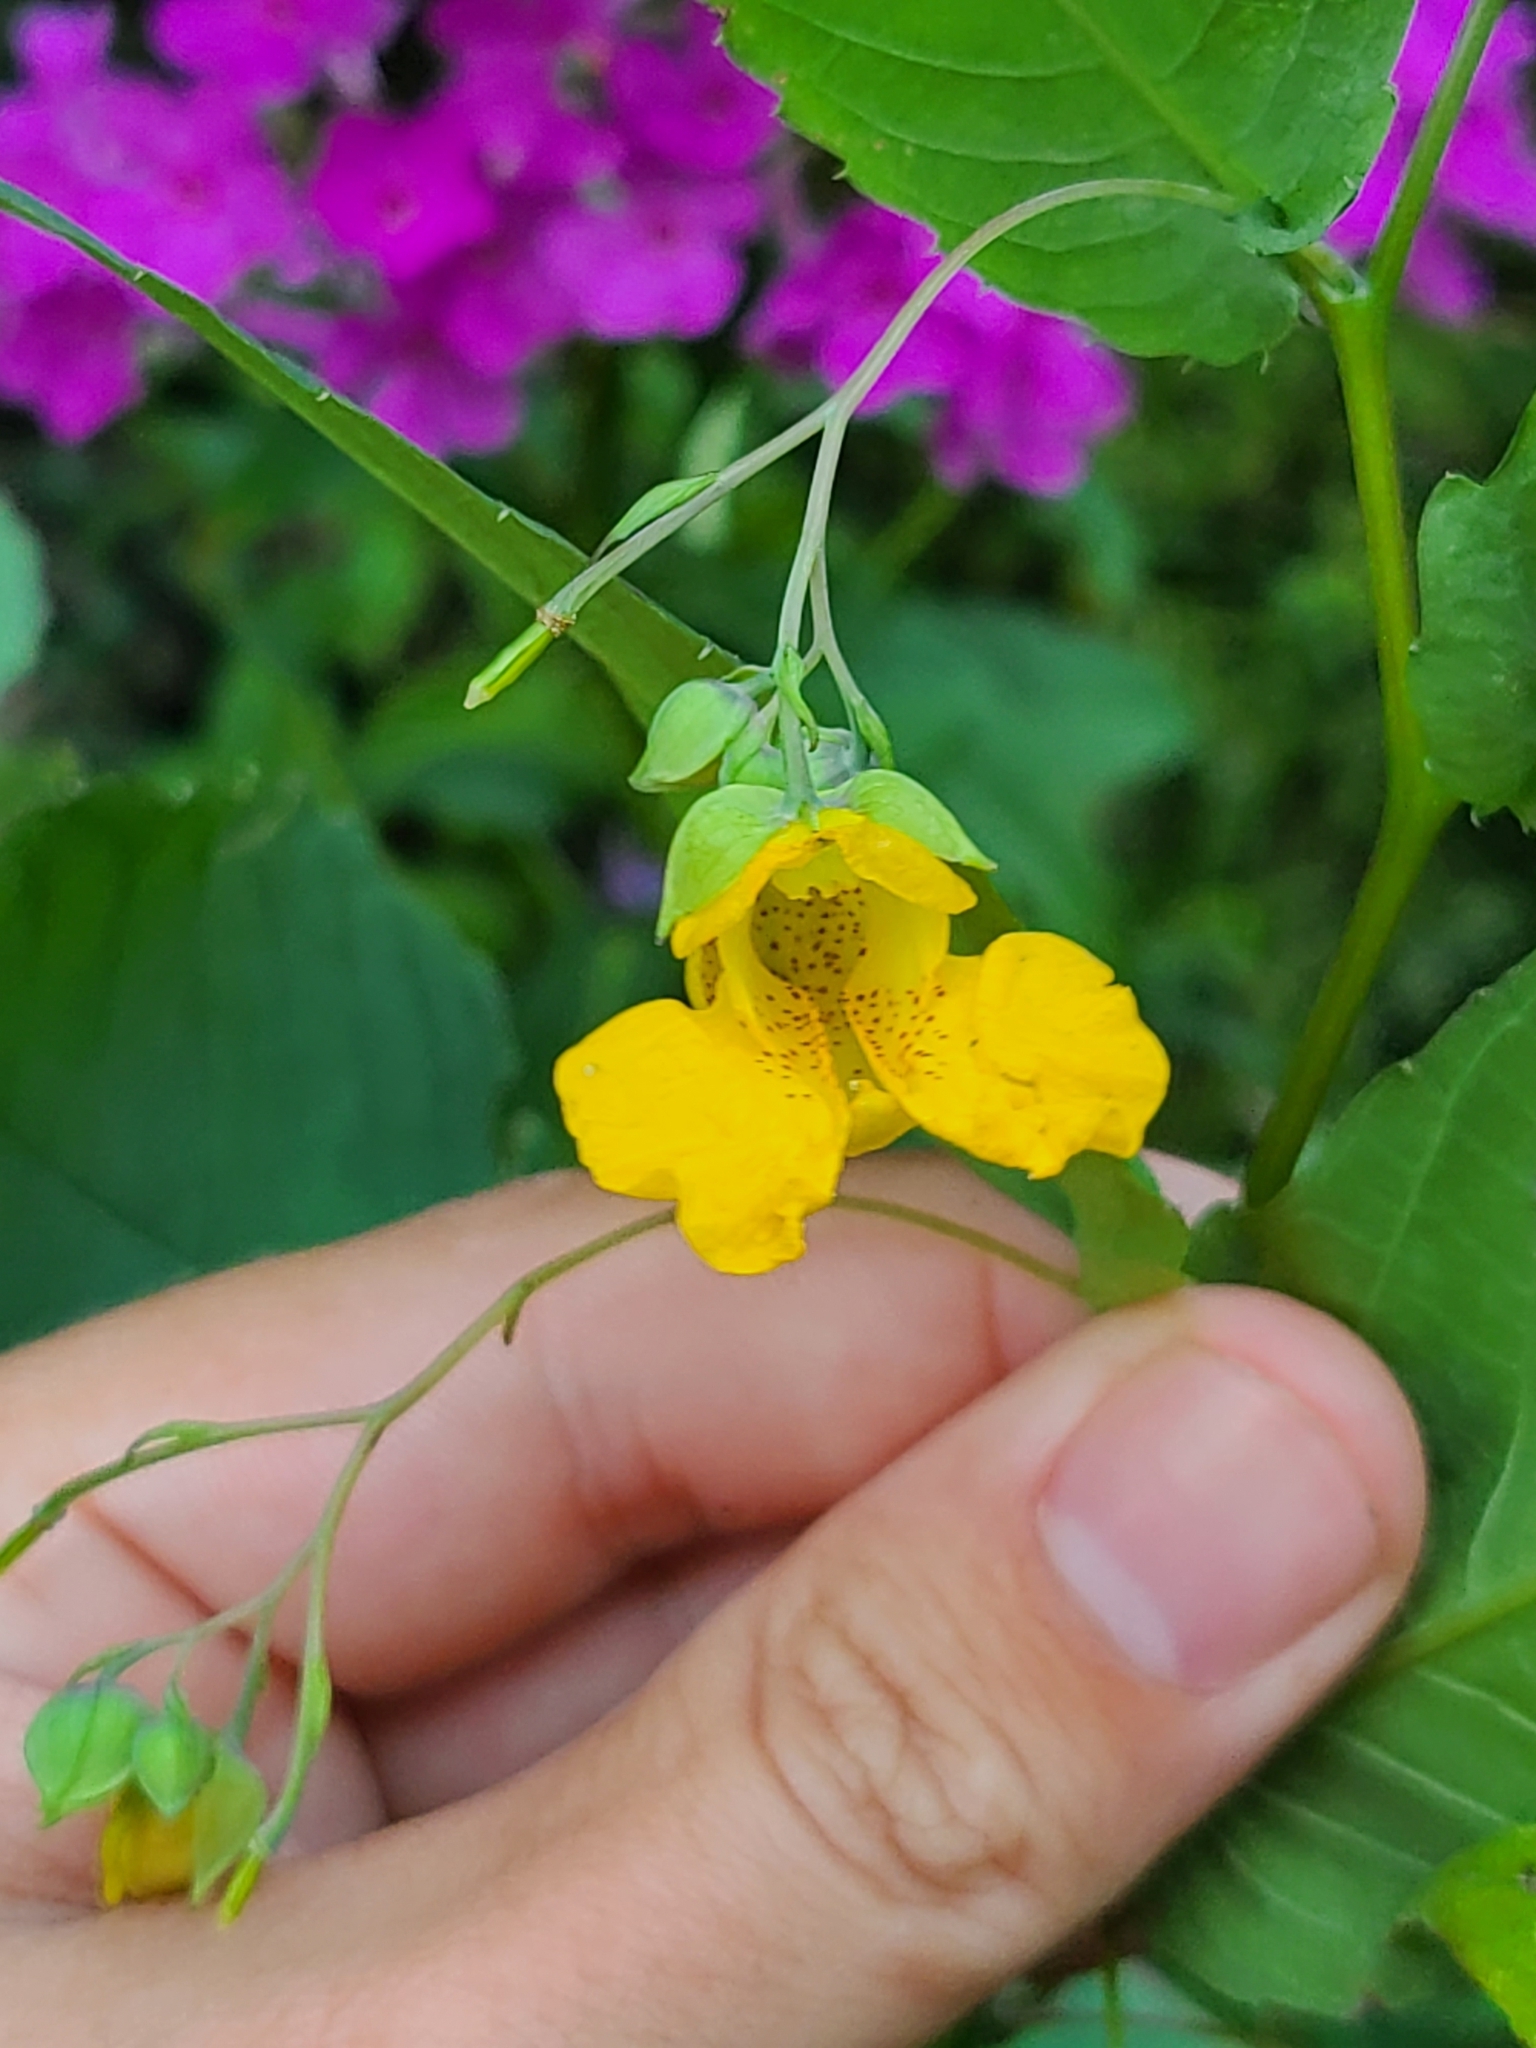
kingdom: Plantae
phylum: Tracheophyta
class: Magnoliopsida
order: Ericales
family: Balsaminaceae
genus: Impatiens
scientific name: Impatiens pallida
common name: Pale snapweed
